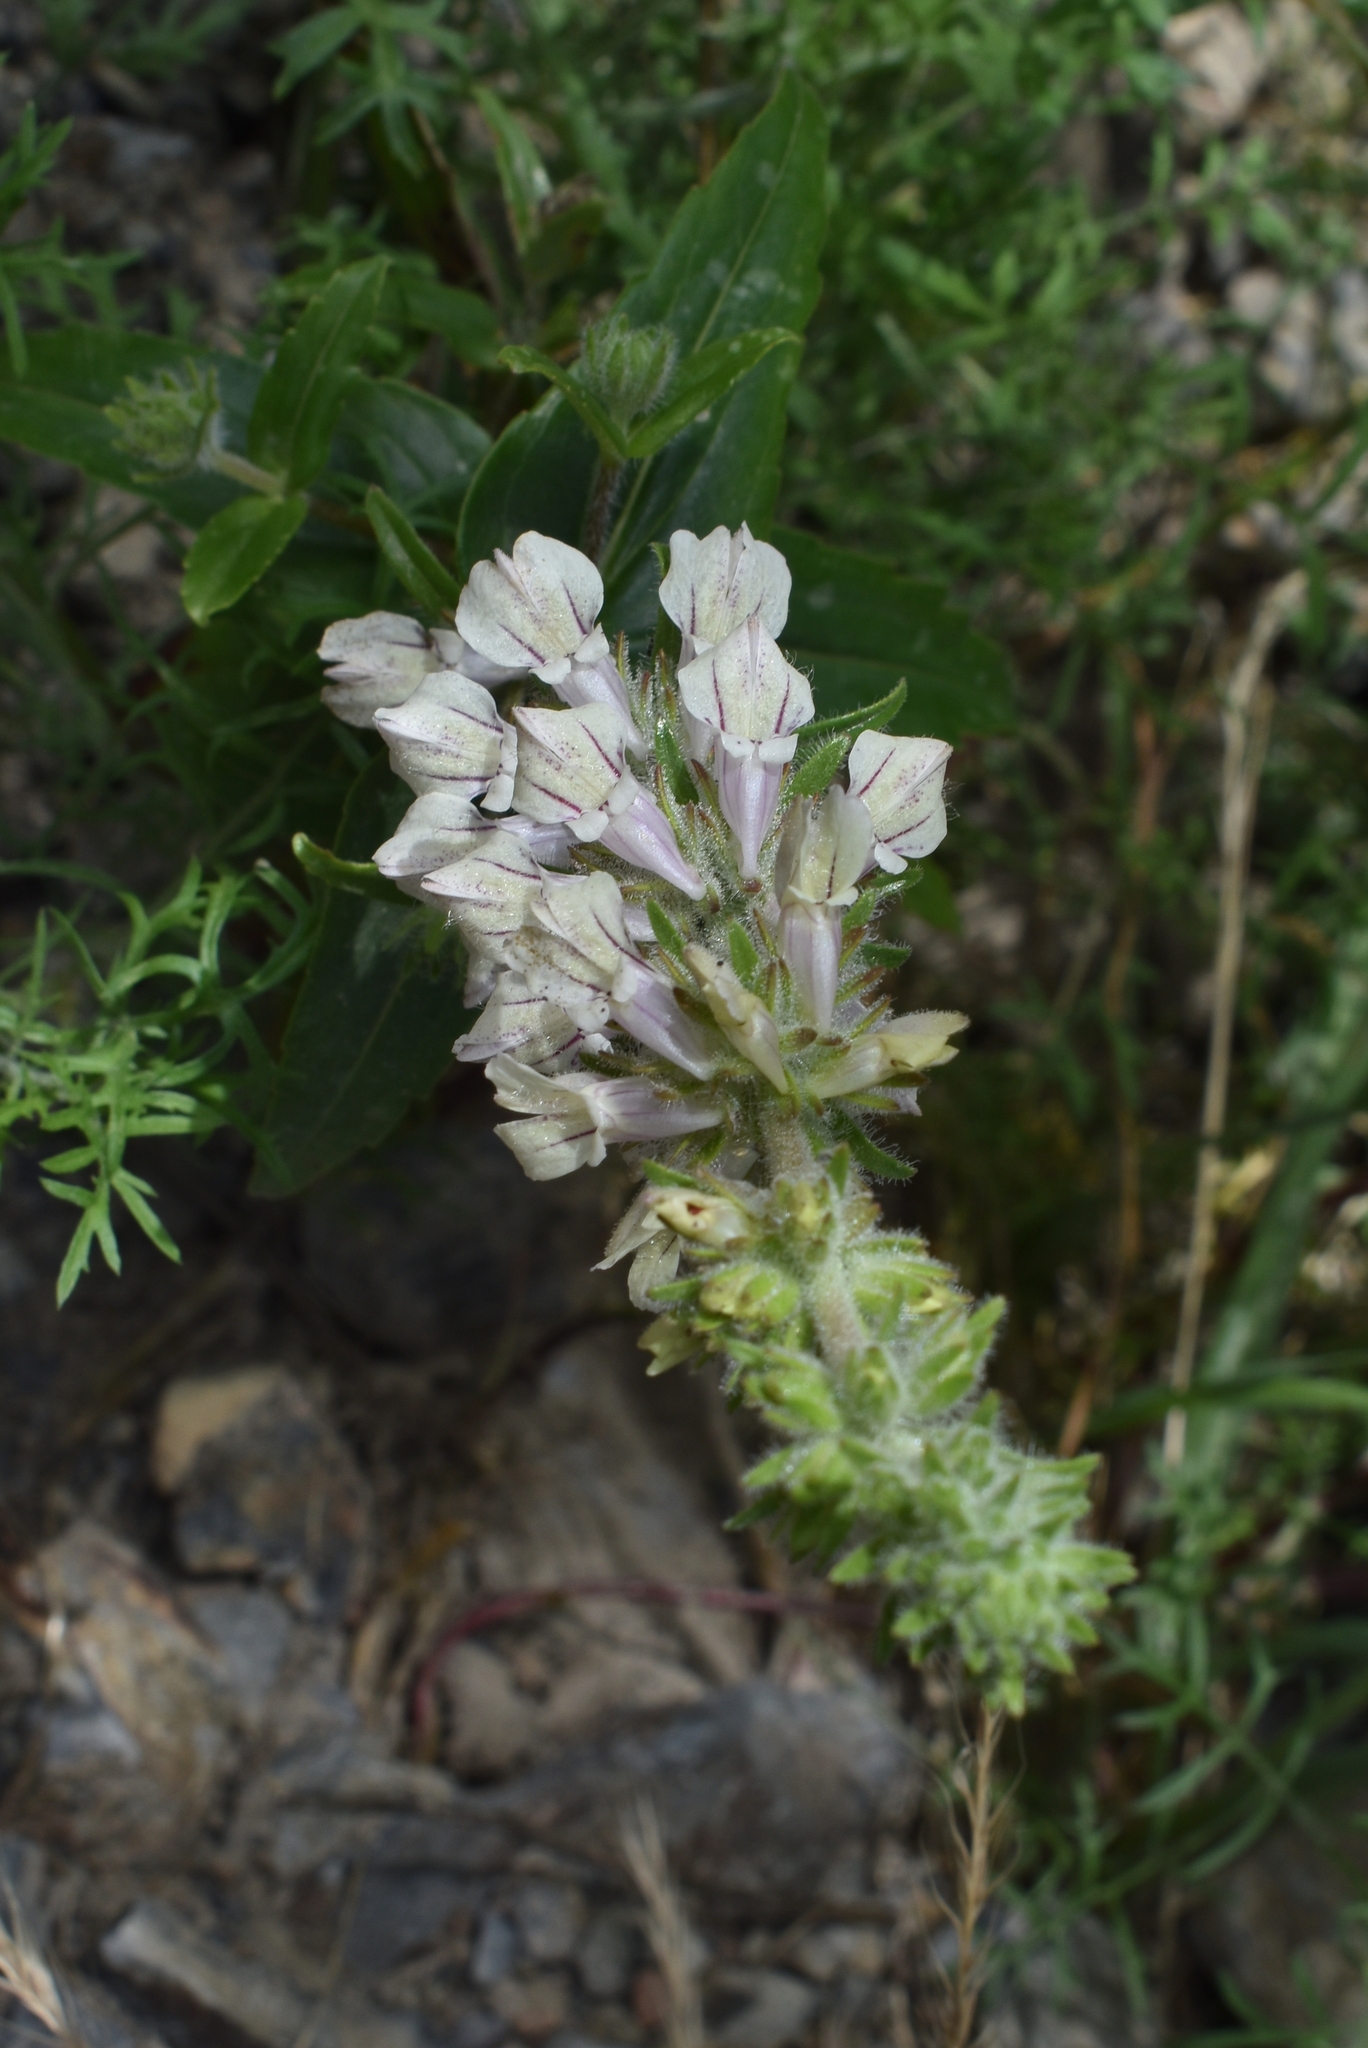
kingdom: Plantae
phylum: Tracheophyta
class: Magnoliopsida
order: Lamiales
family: Plantaginaceae
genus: Collinsia
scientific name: Collinsia tinctoria
